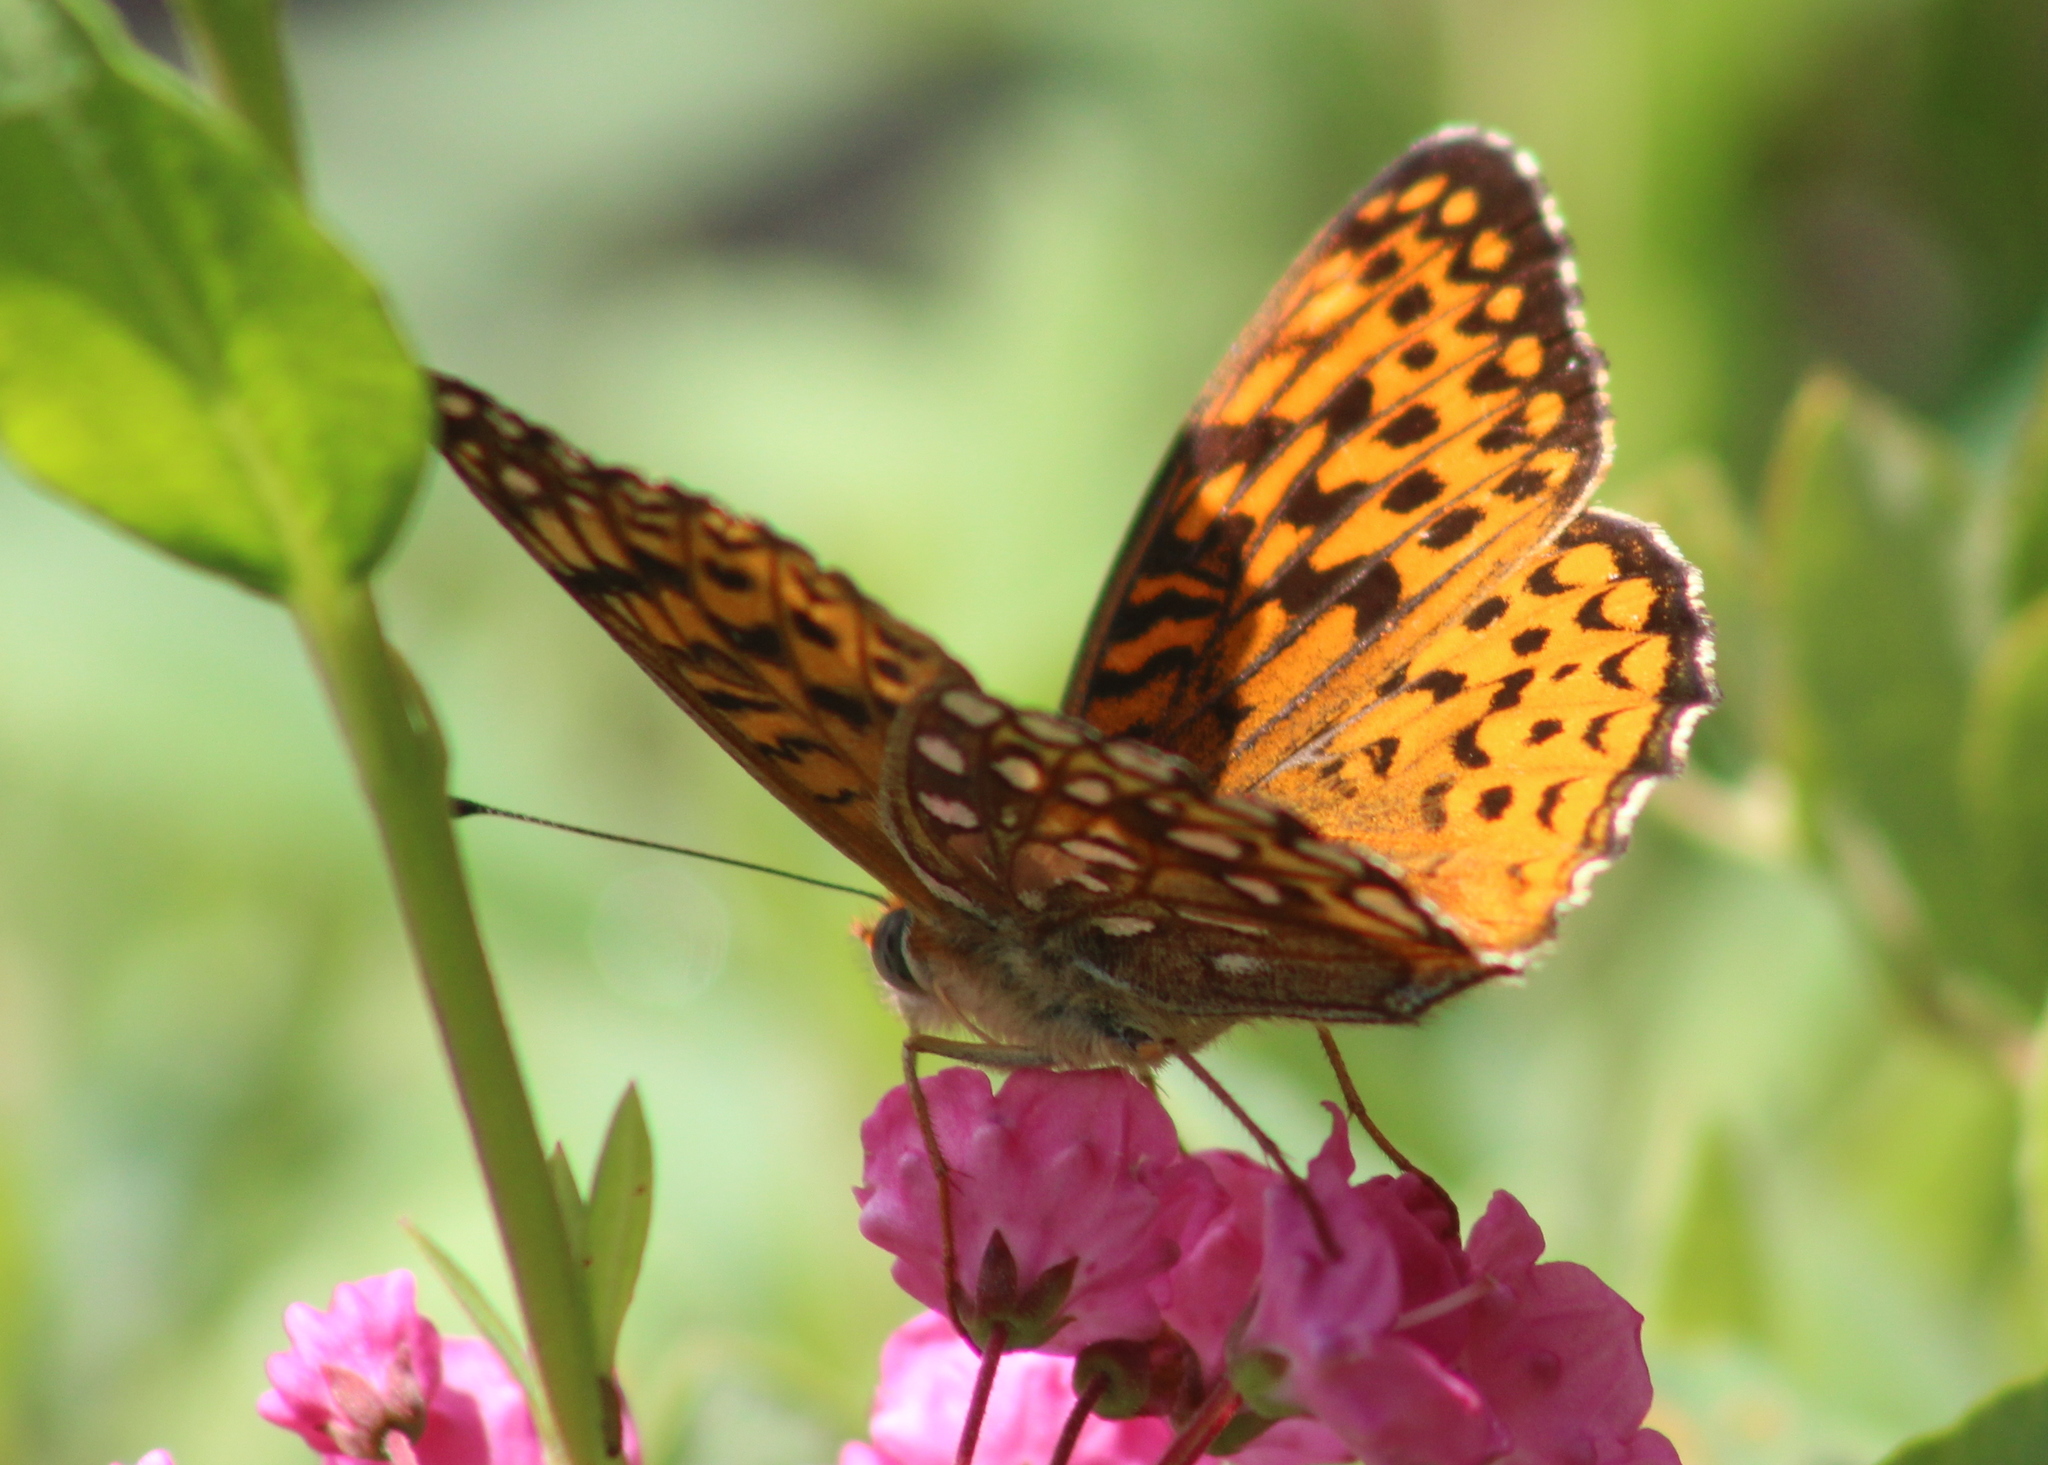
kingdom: Animalia
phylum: Arthropoda
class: Insecta
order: Lepidoptera
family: Nymphalidae
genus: Speyeria
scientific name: Speyeria atlantis
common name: Atlantis fritillary
